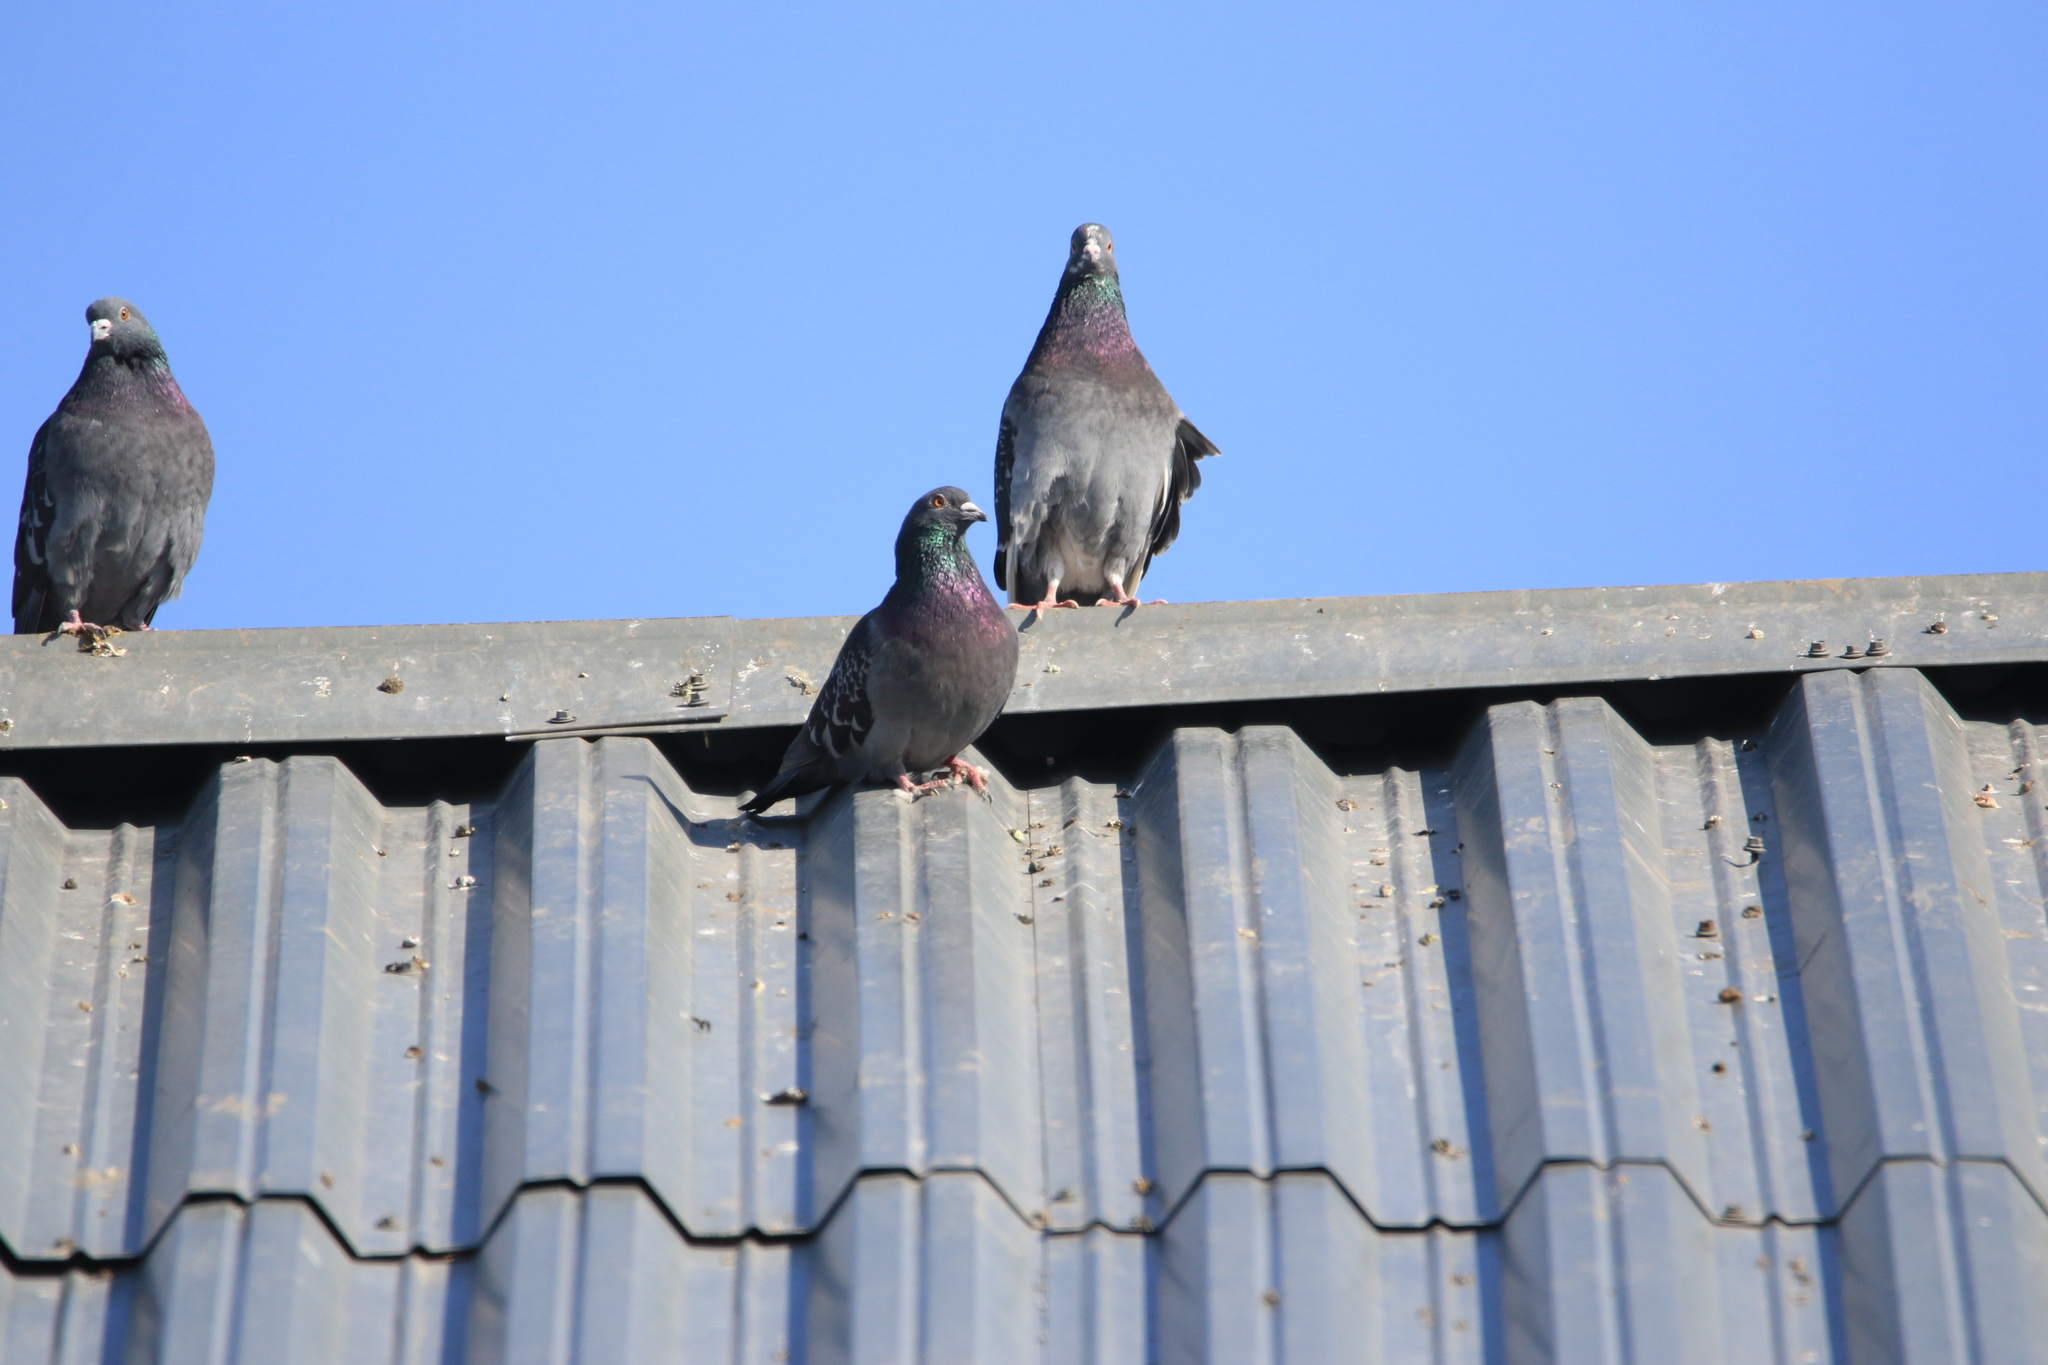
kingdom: Animalia
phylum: Chordata
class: Aves
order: Columbiformes
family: Columbidae
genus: Columba
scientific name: Columba livia
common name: Rock pigeon
